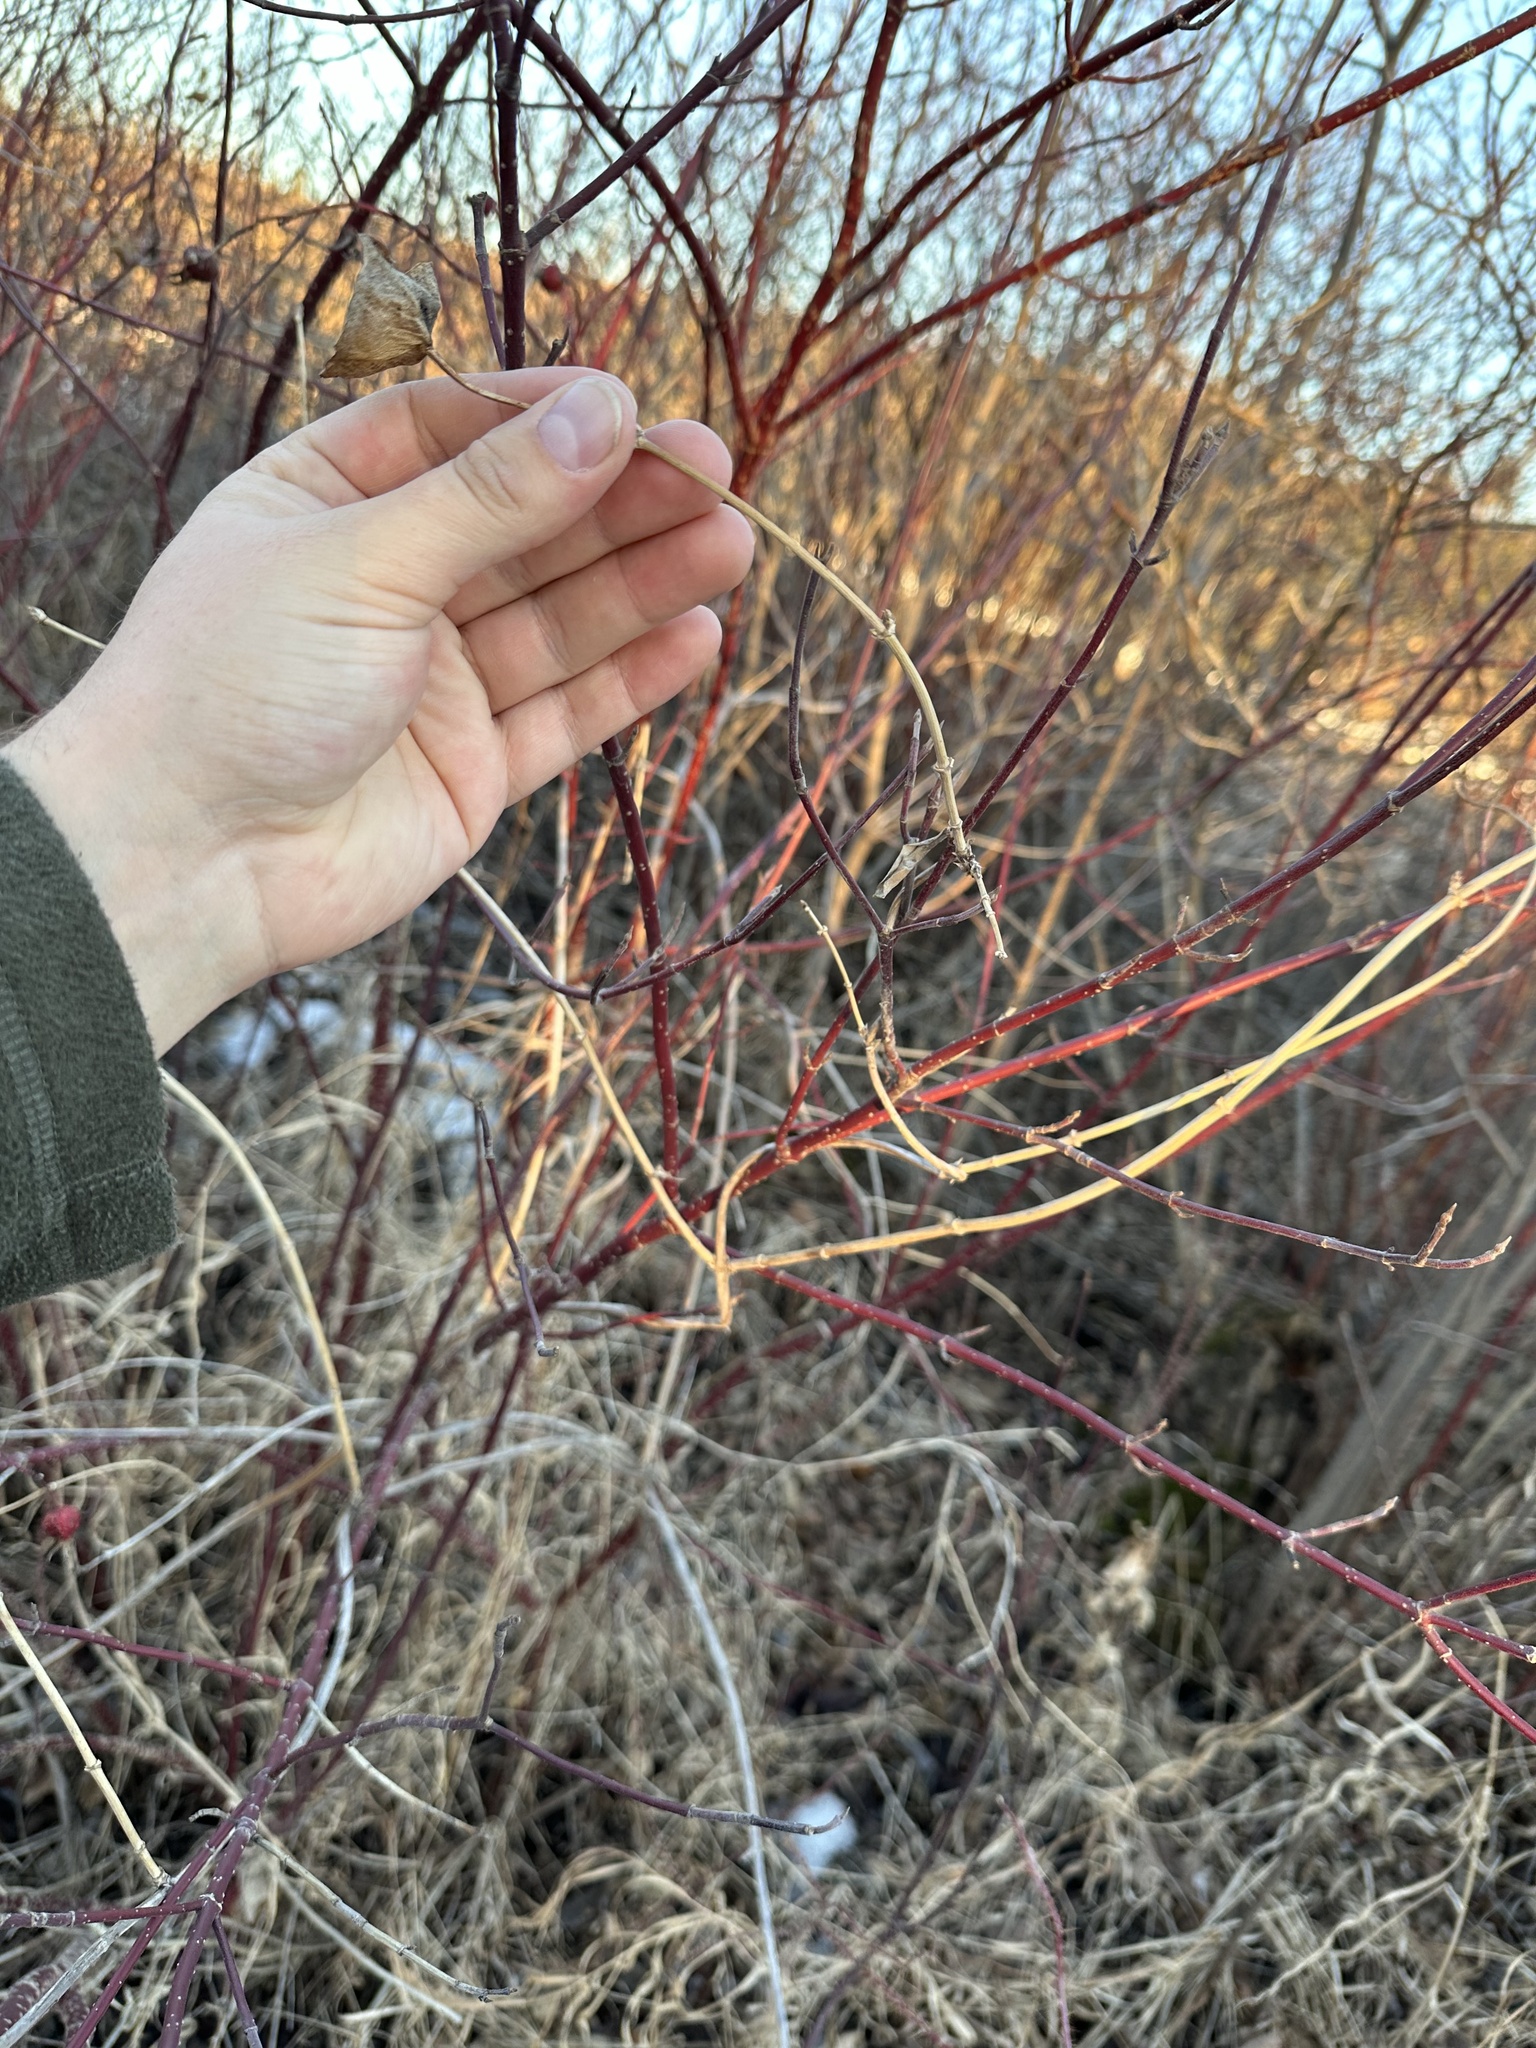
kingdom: Plantae
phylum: Tracheophyta
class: Magnoliopsida
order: Dipsacales
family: Caprifoliaceae
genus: Lonicera
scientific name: Lonicera dioica
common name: Limber honeysuckle
